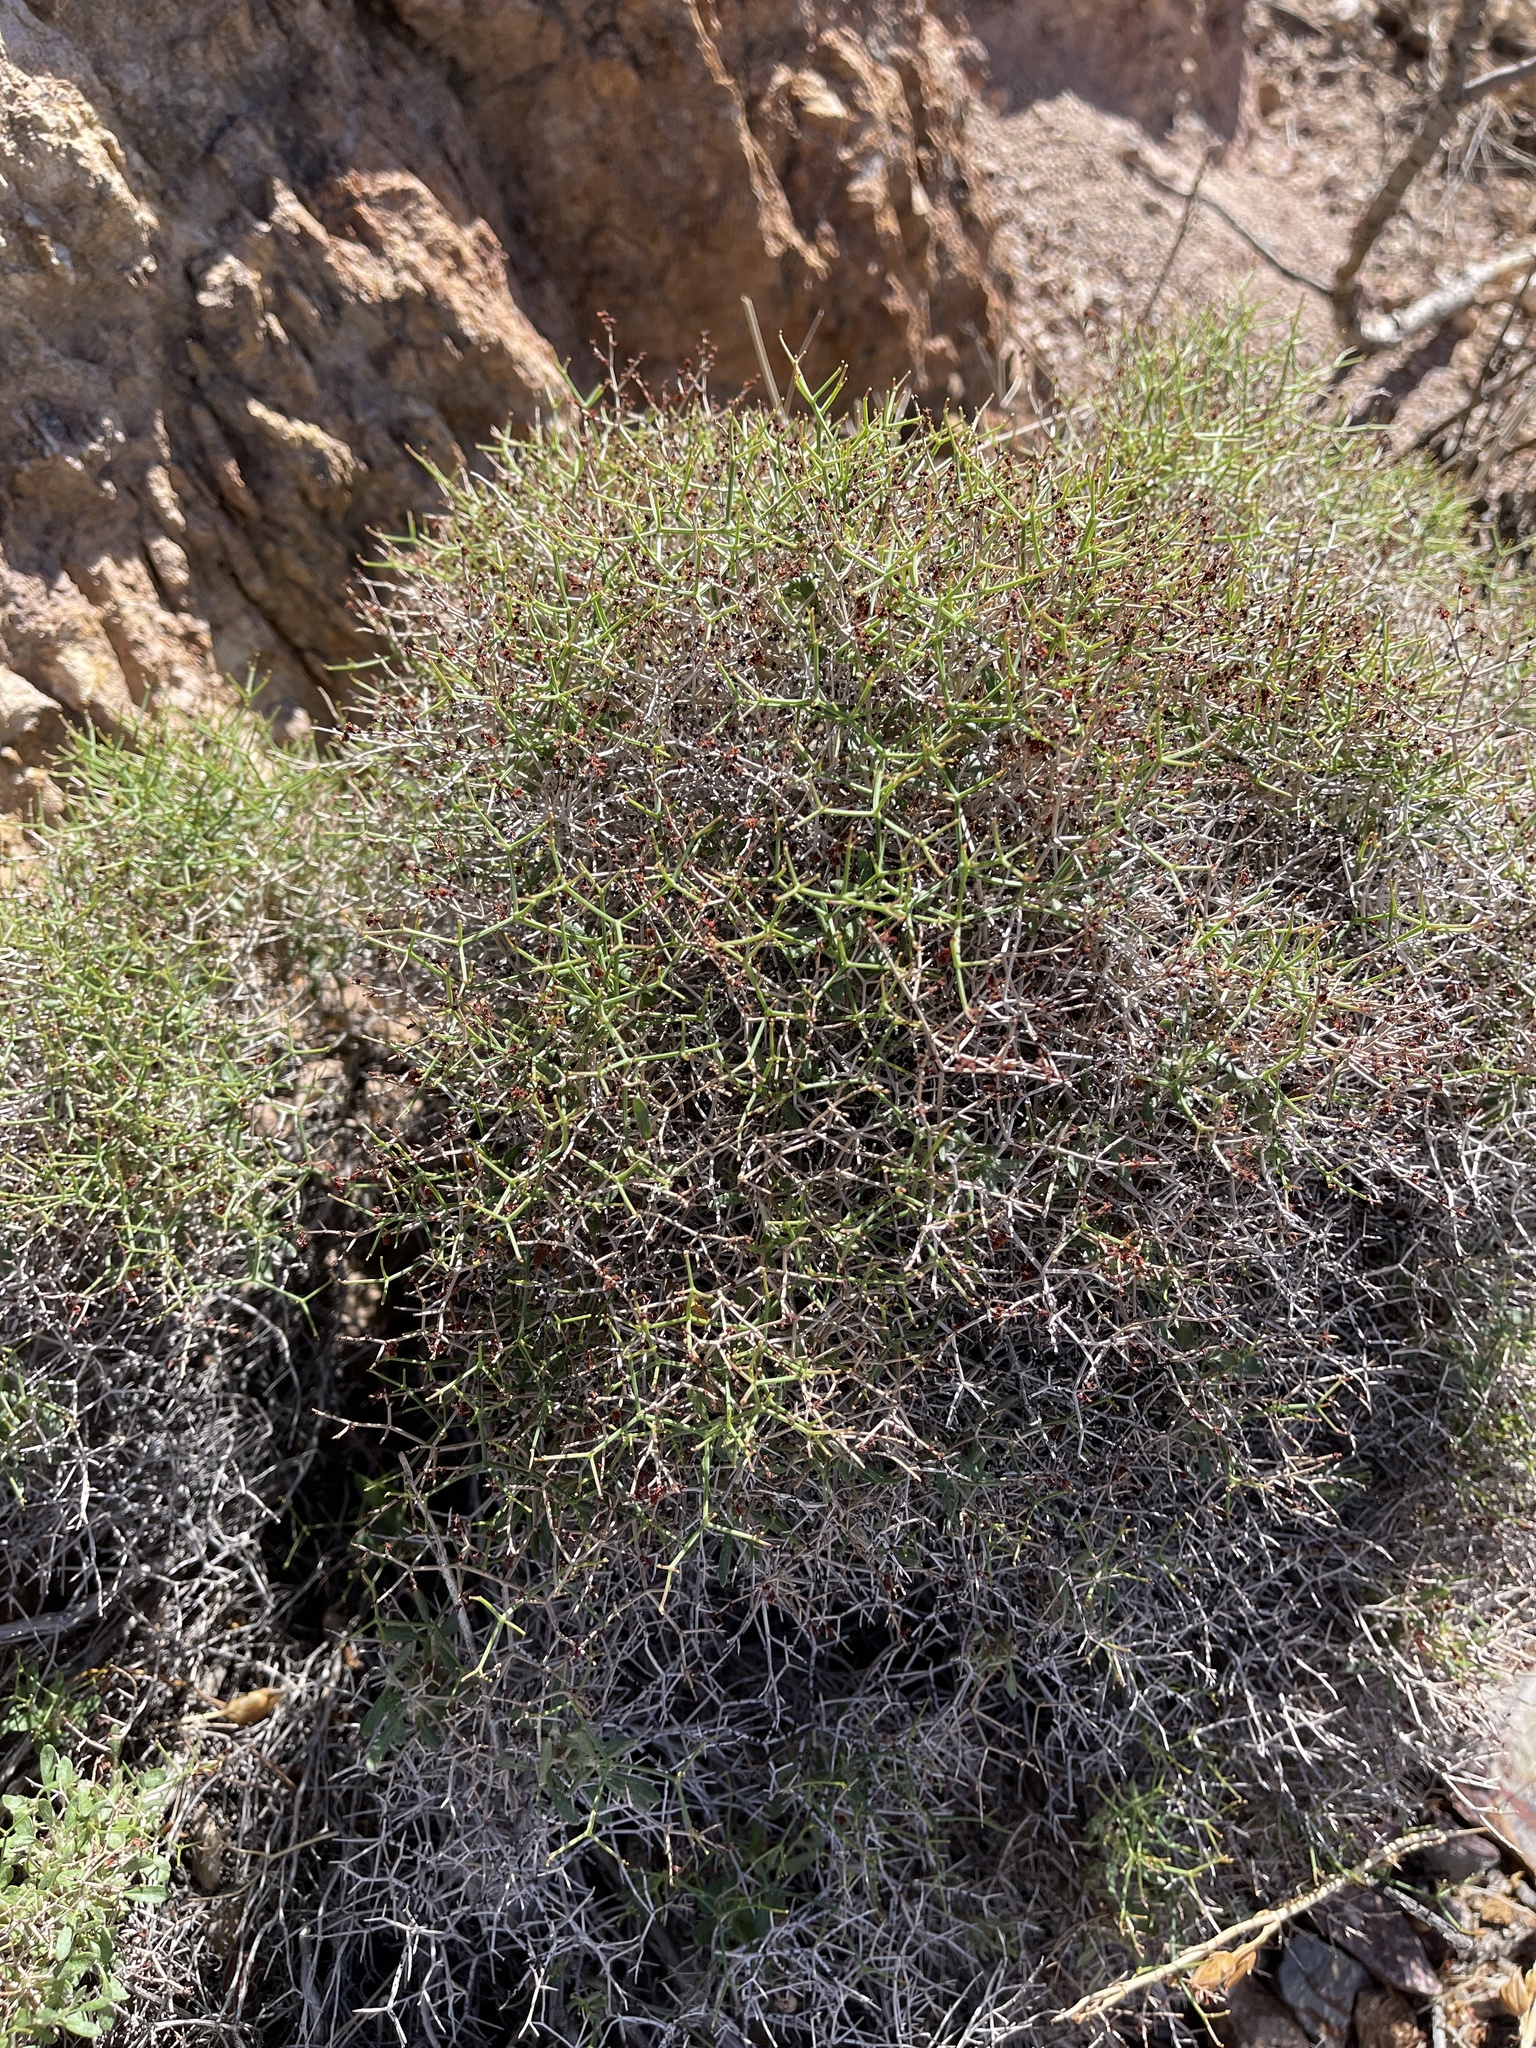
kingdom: Plantae
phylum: Tracheophyta
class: Magnoliopsida
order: Caryophyllales
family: Polygonaceae
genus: Eriogonum
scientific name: Eriogonum heermannii
